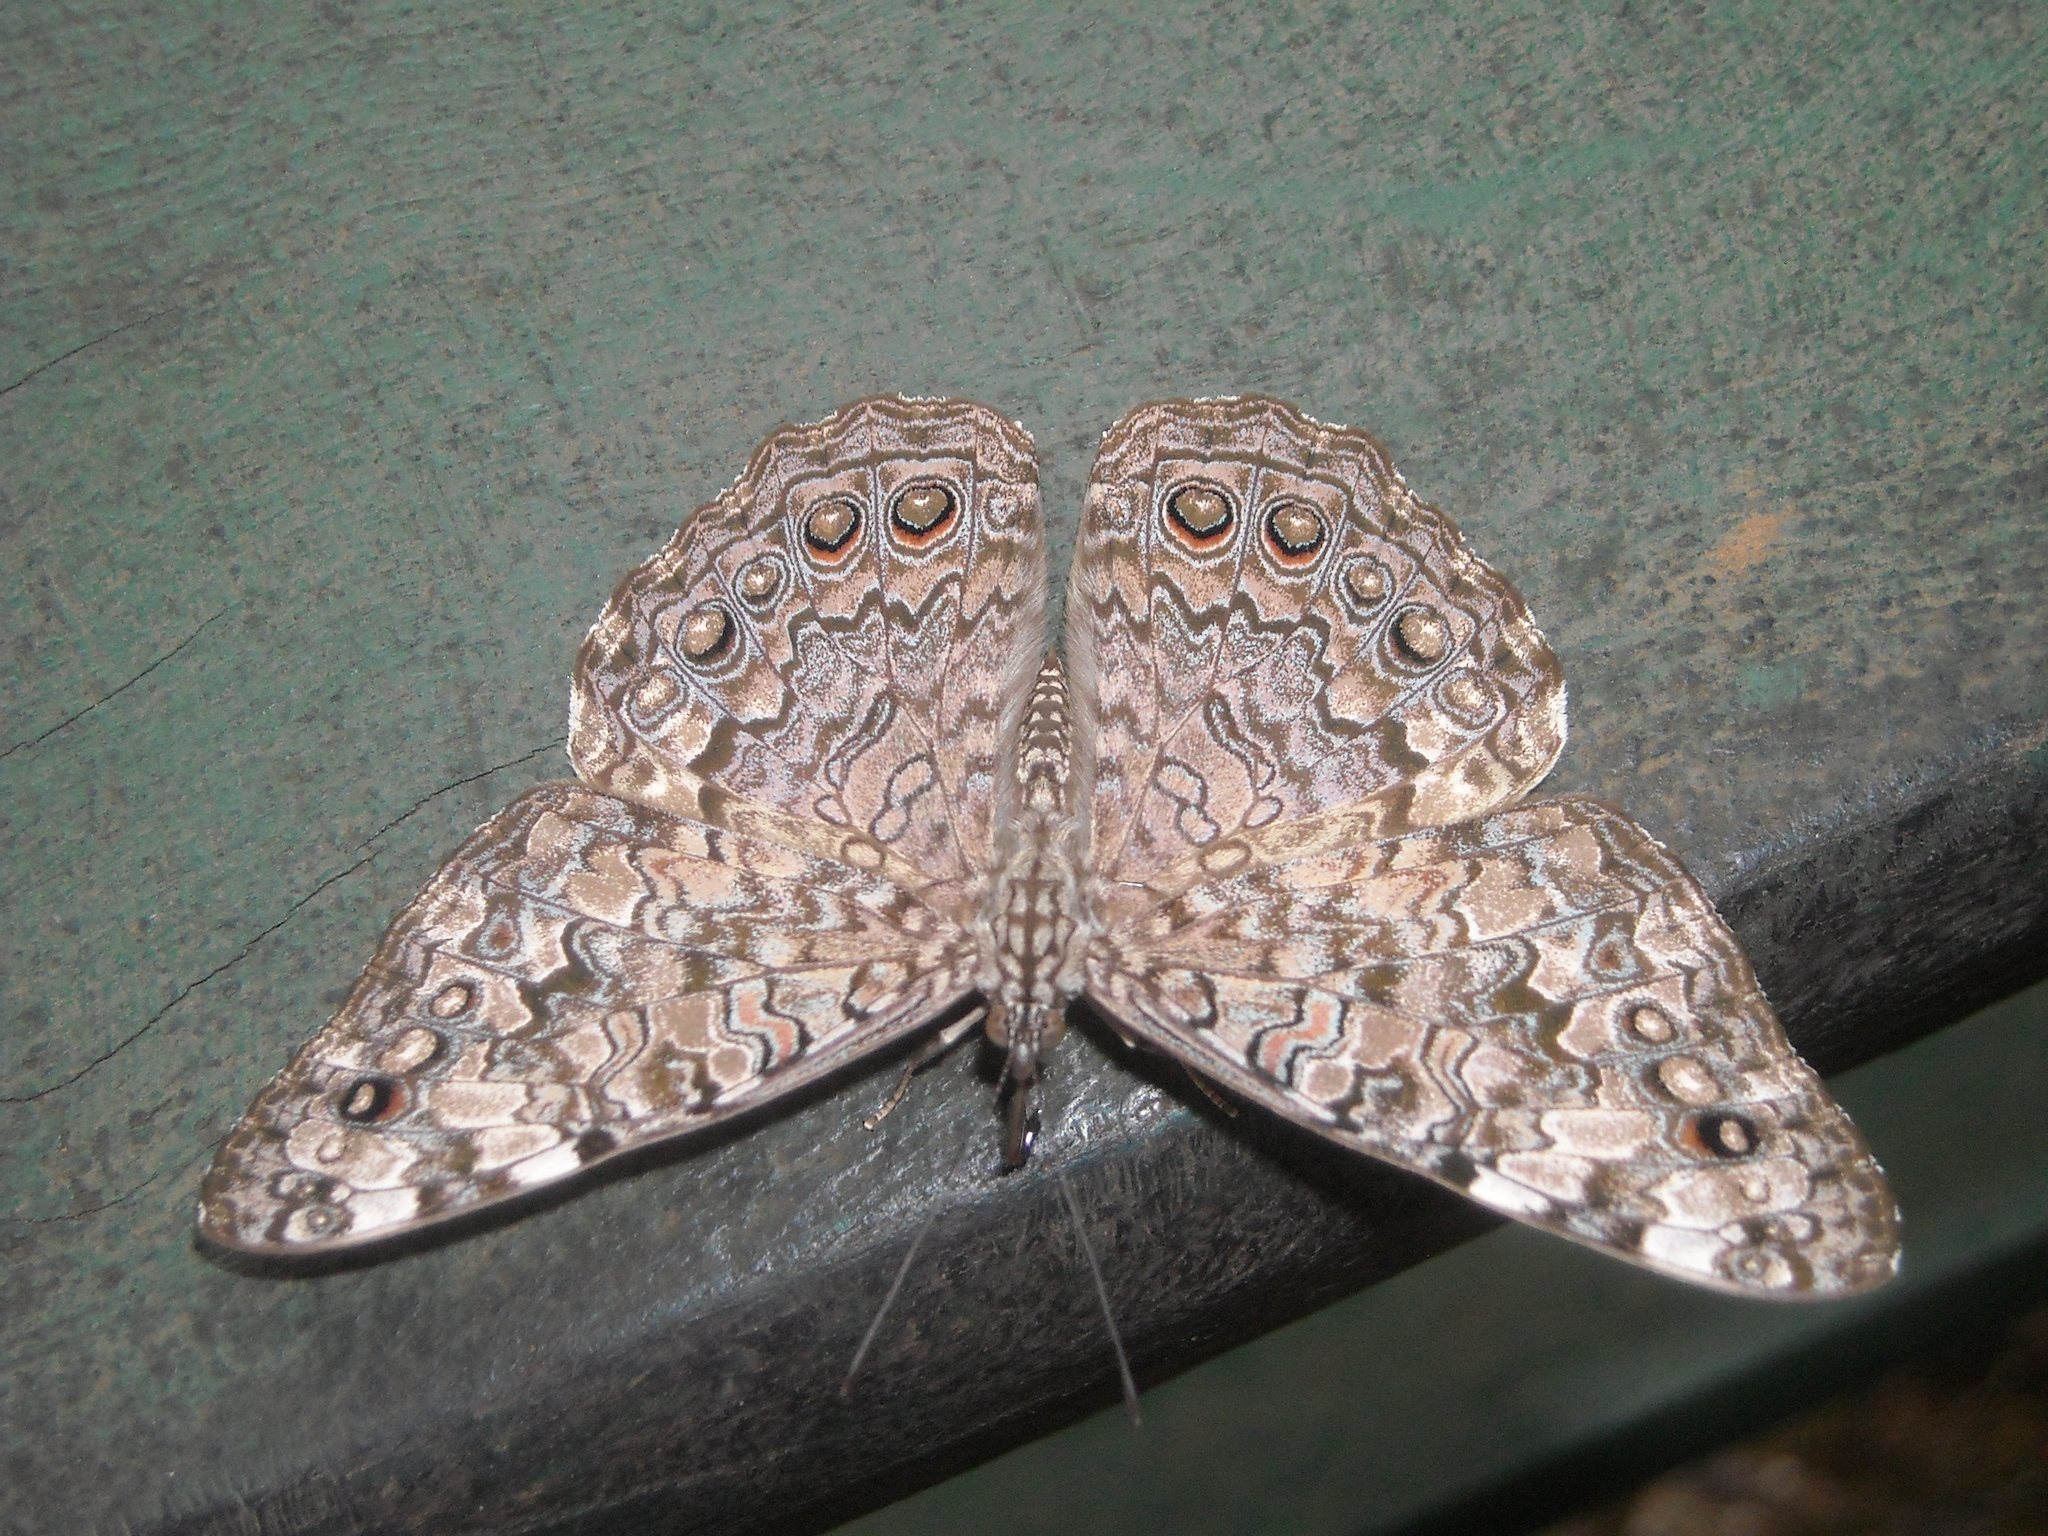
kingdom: Animalia
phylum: Arthropoda
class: Insecta
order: Lepidoptera
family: Nymphalidae
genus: Hamadryas
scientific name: Hamadryas februa
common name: Gray cracker
